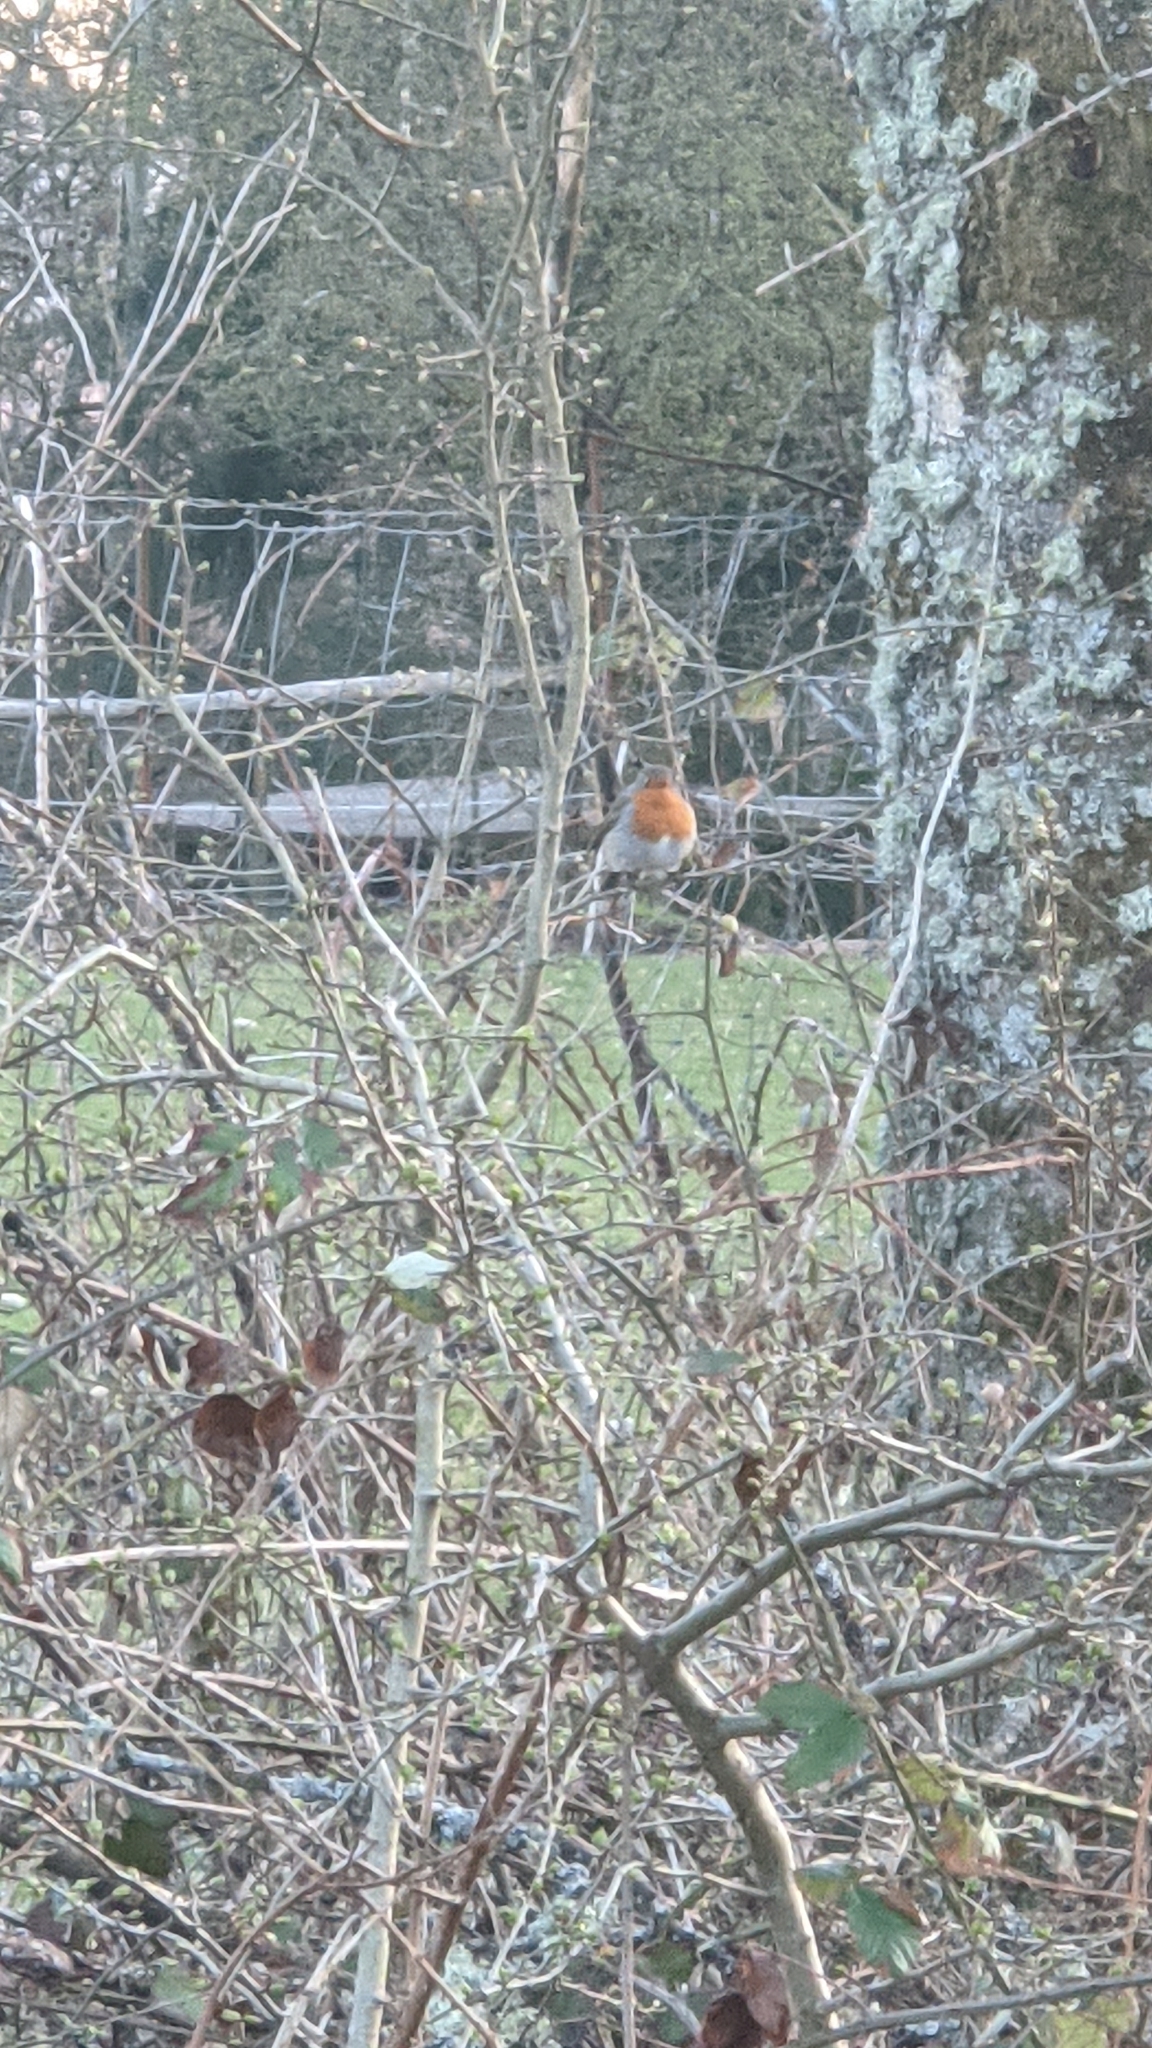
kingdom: Animalia
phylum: Chordata
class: Aves
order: Passeriformes
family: Muscicapidae
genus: Erithacus
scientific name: Erithacus rubecula
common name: European robin
